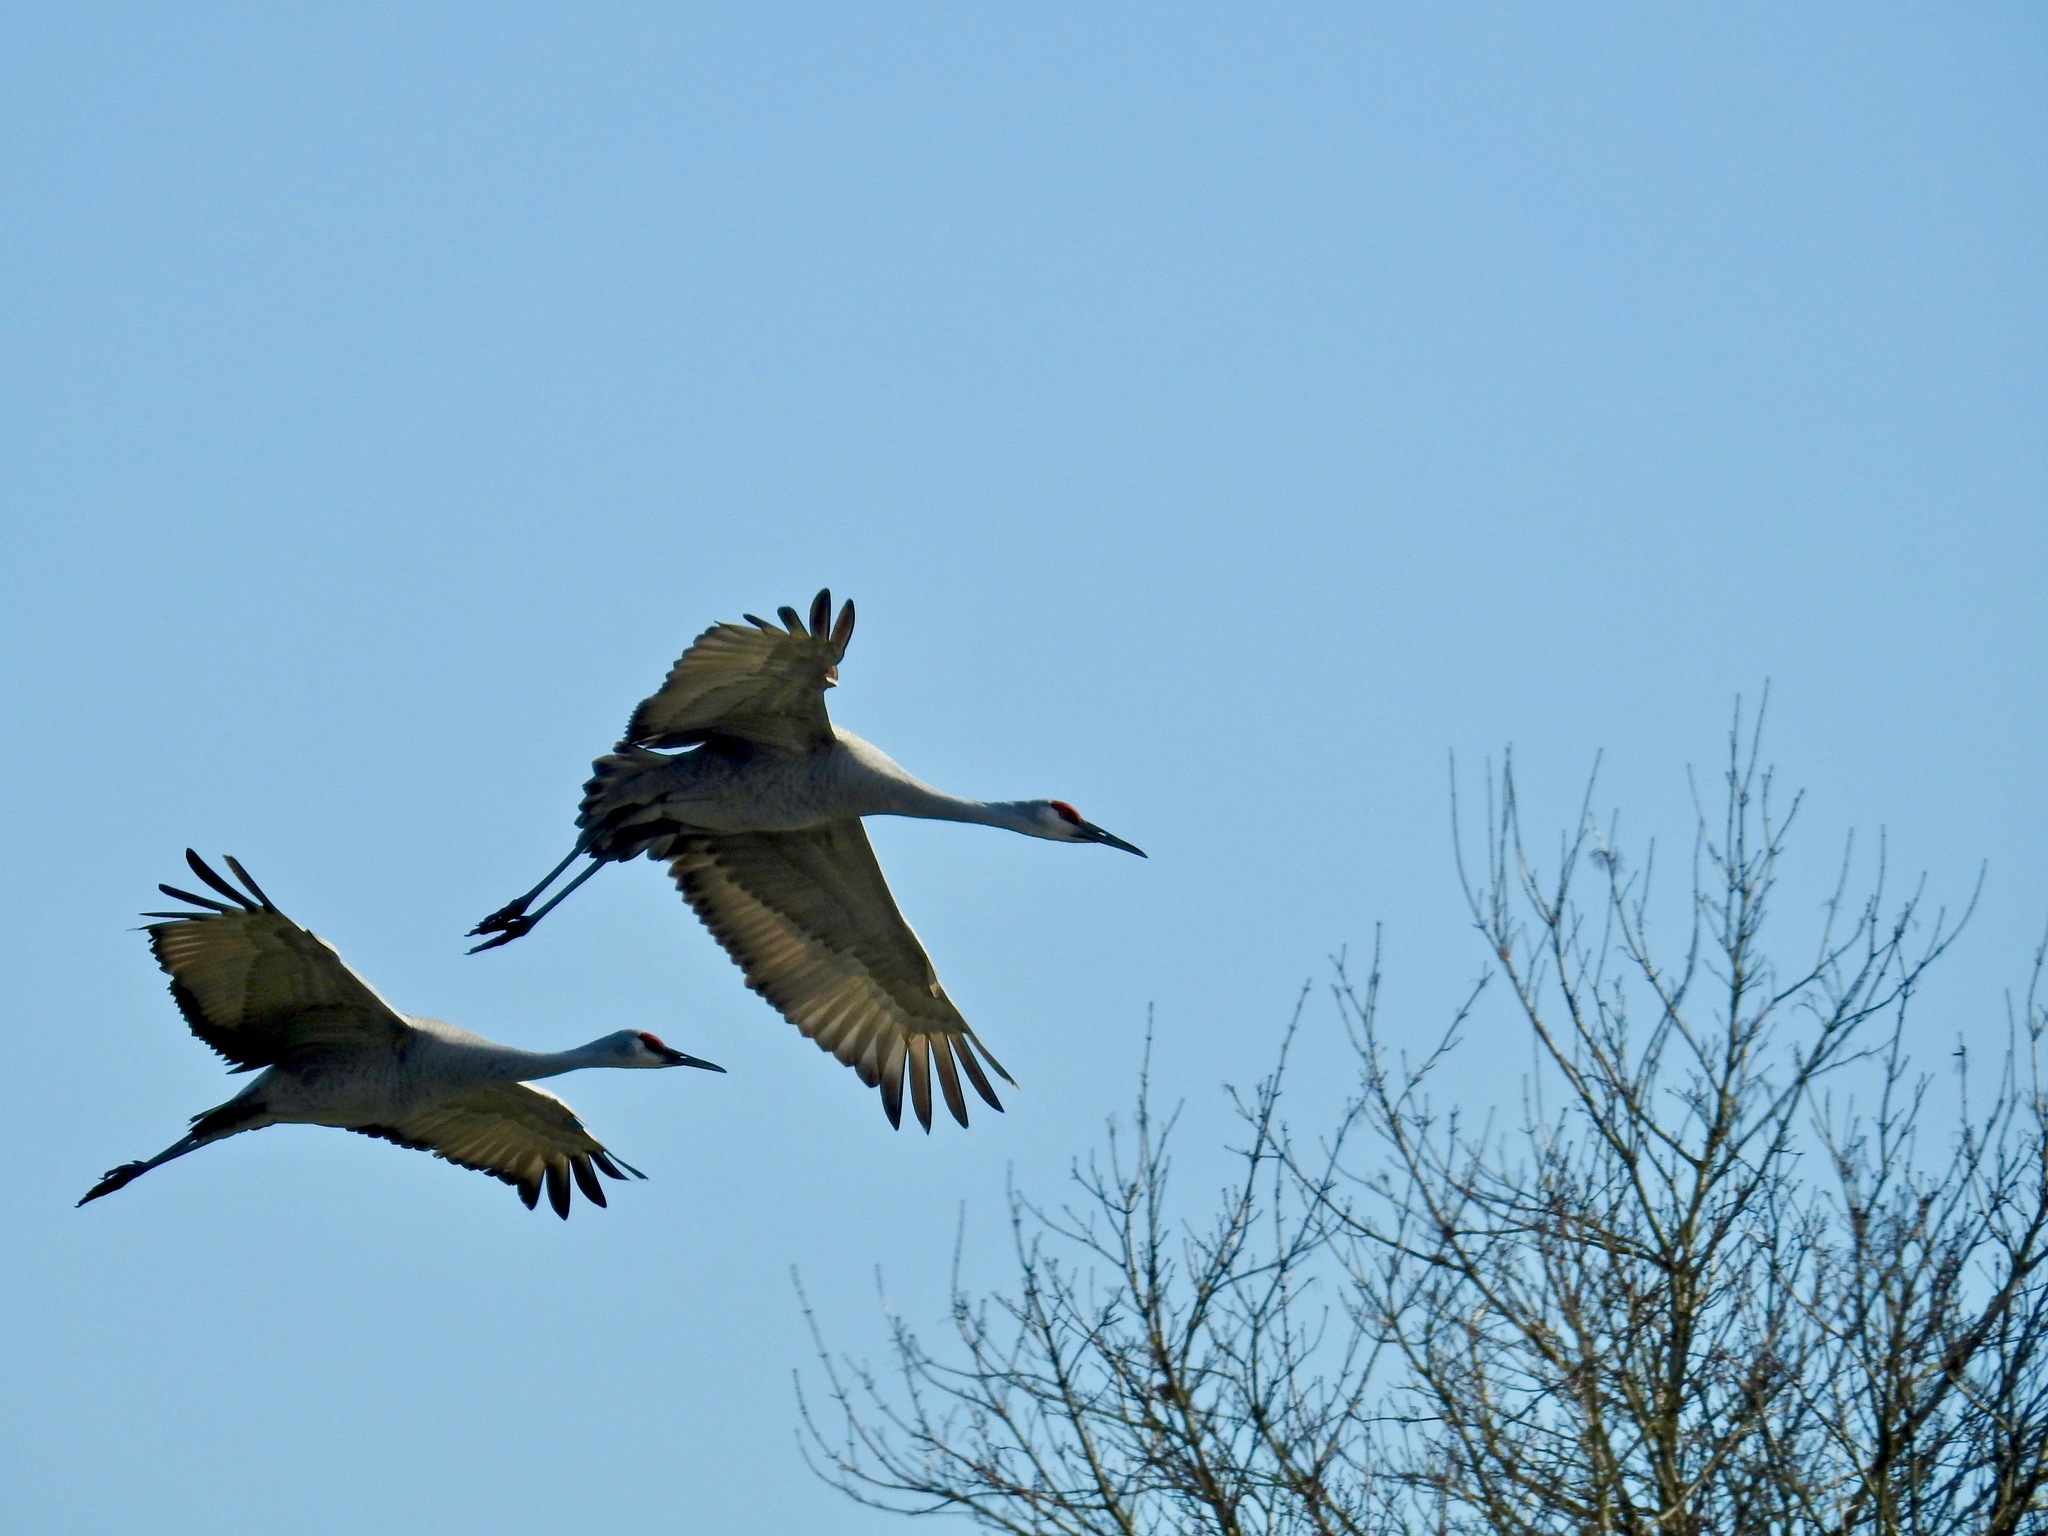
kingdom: Animalia
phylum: Chordata
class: Aves
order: Gruiformes
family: Gruidae
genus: Grus
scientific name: Grus canadensis
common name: Sandhill crane
